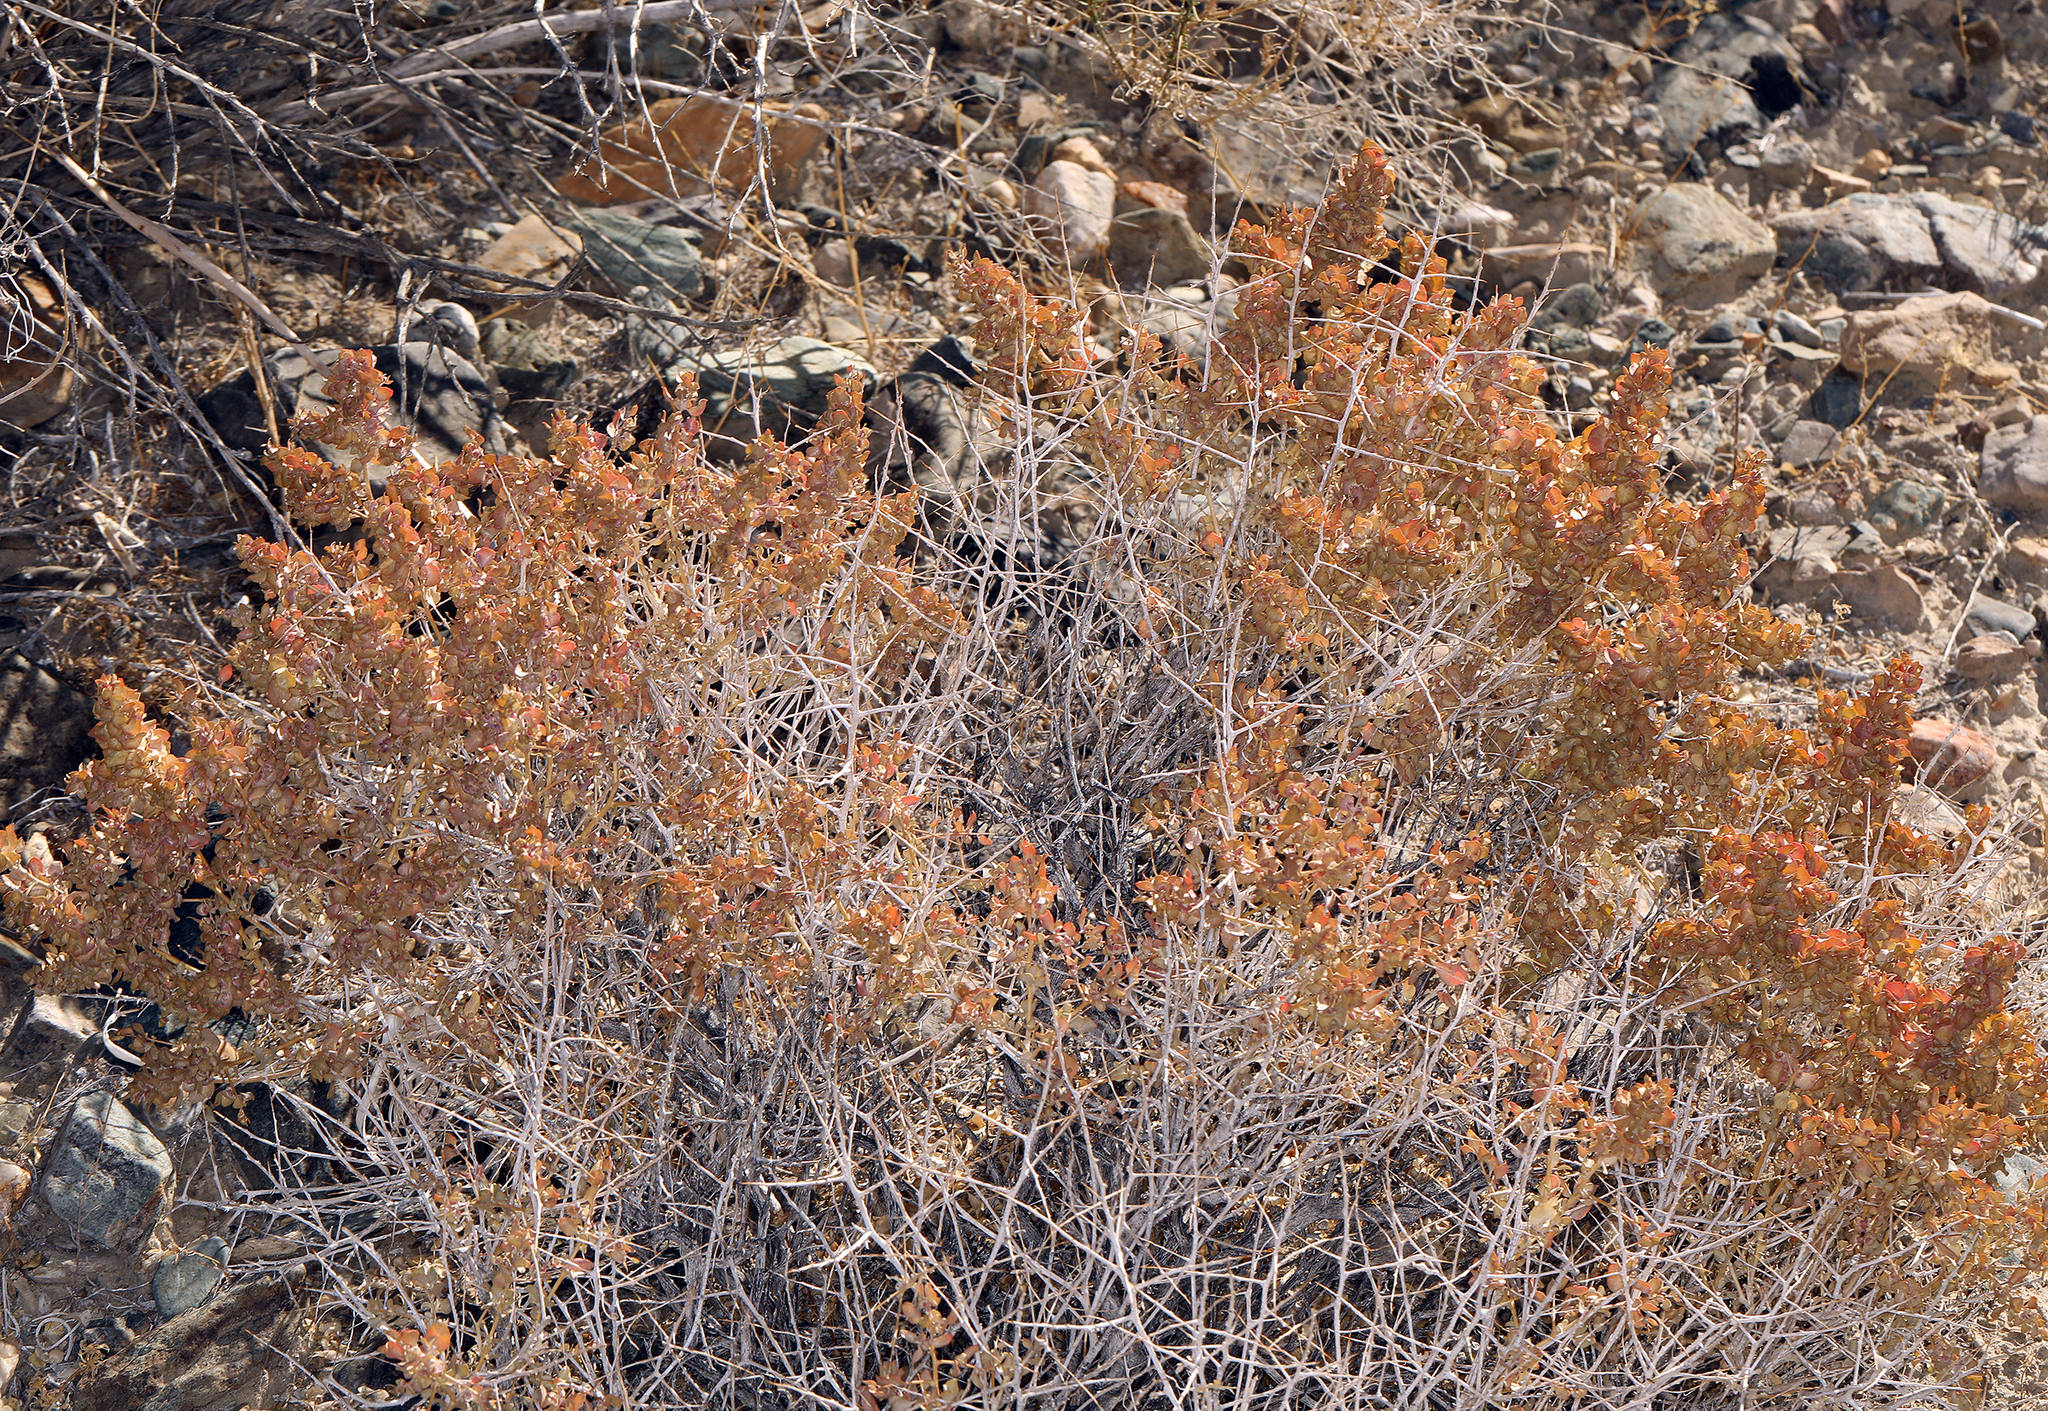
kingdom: Plantae
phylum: Tracheophyta
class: Magnoliopsida
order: Caryophyllales
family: Amaranthaceae
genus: Atriplex
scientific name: Atriplex confertifolia
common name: Shadscale
